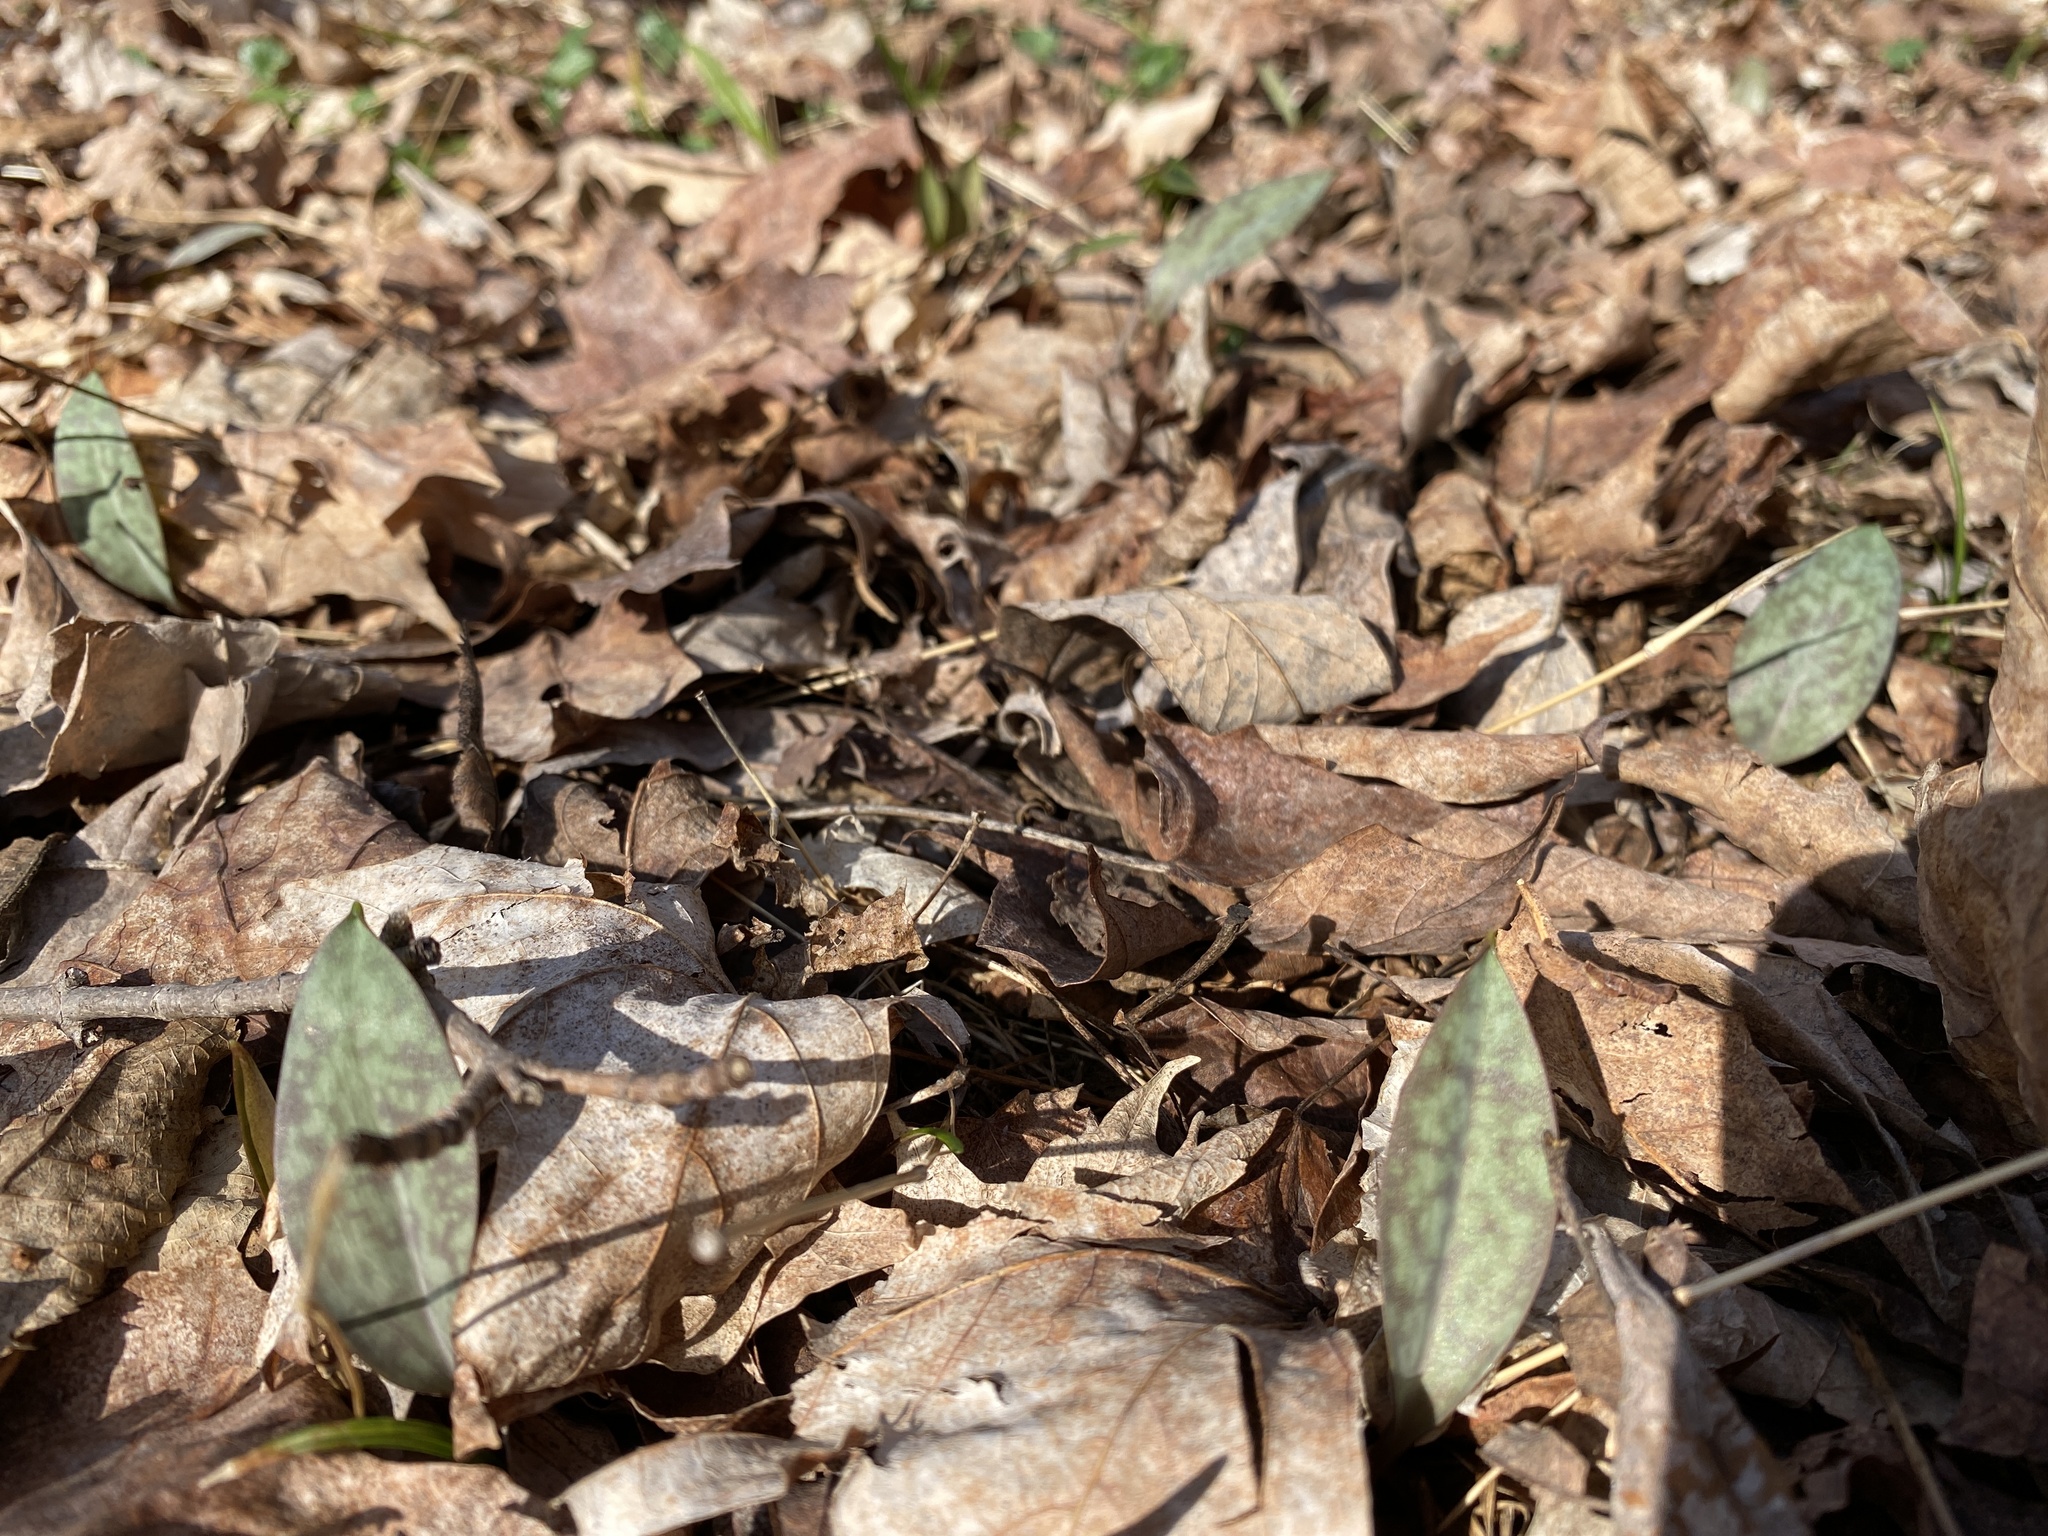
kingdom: Plantae
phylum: Tracheophyta
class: Liliopsida
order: Liliales
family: Liliaceae
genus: Erythronium
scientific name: Erythronium americanum
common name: Yellow adder's-tongue
